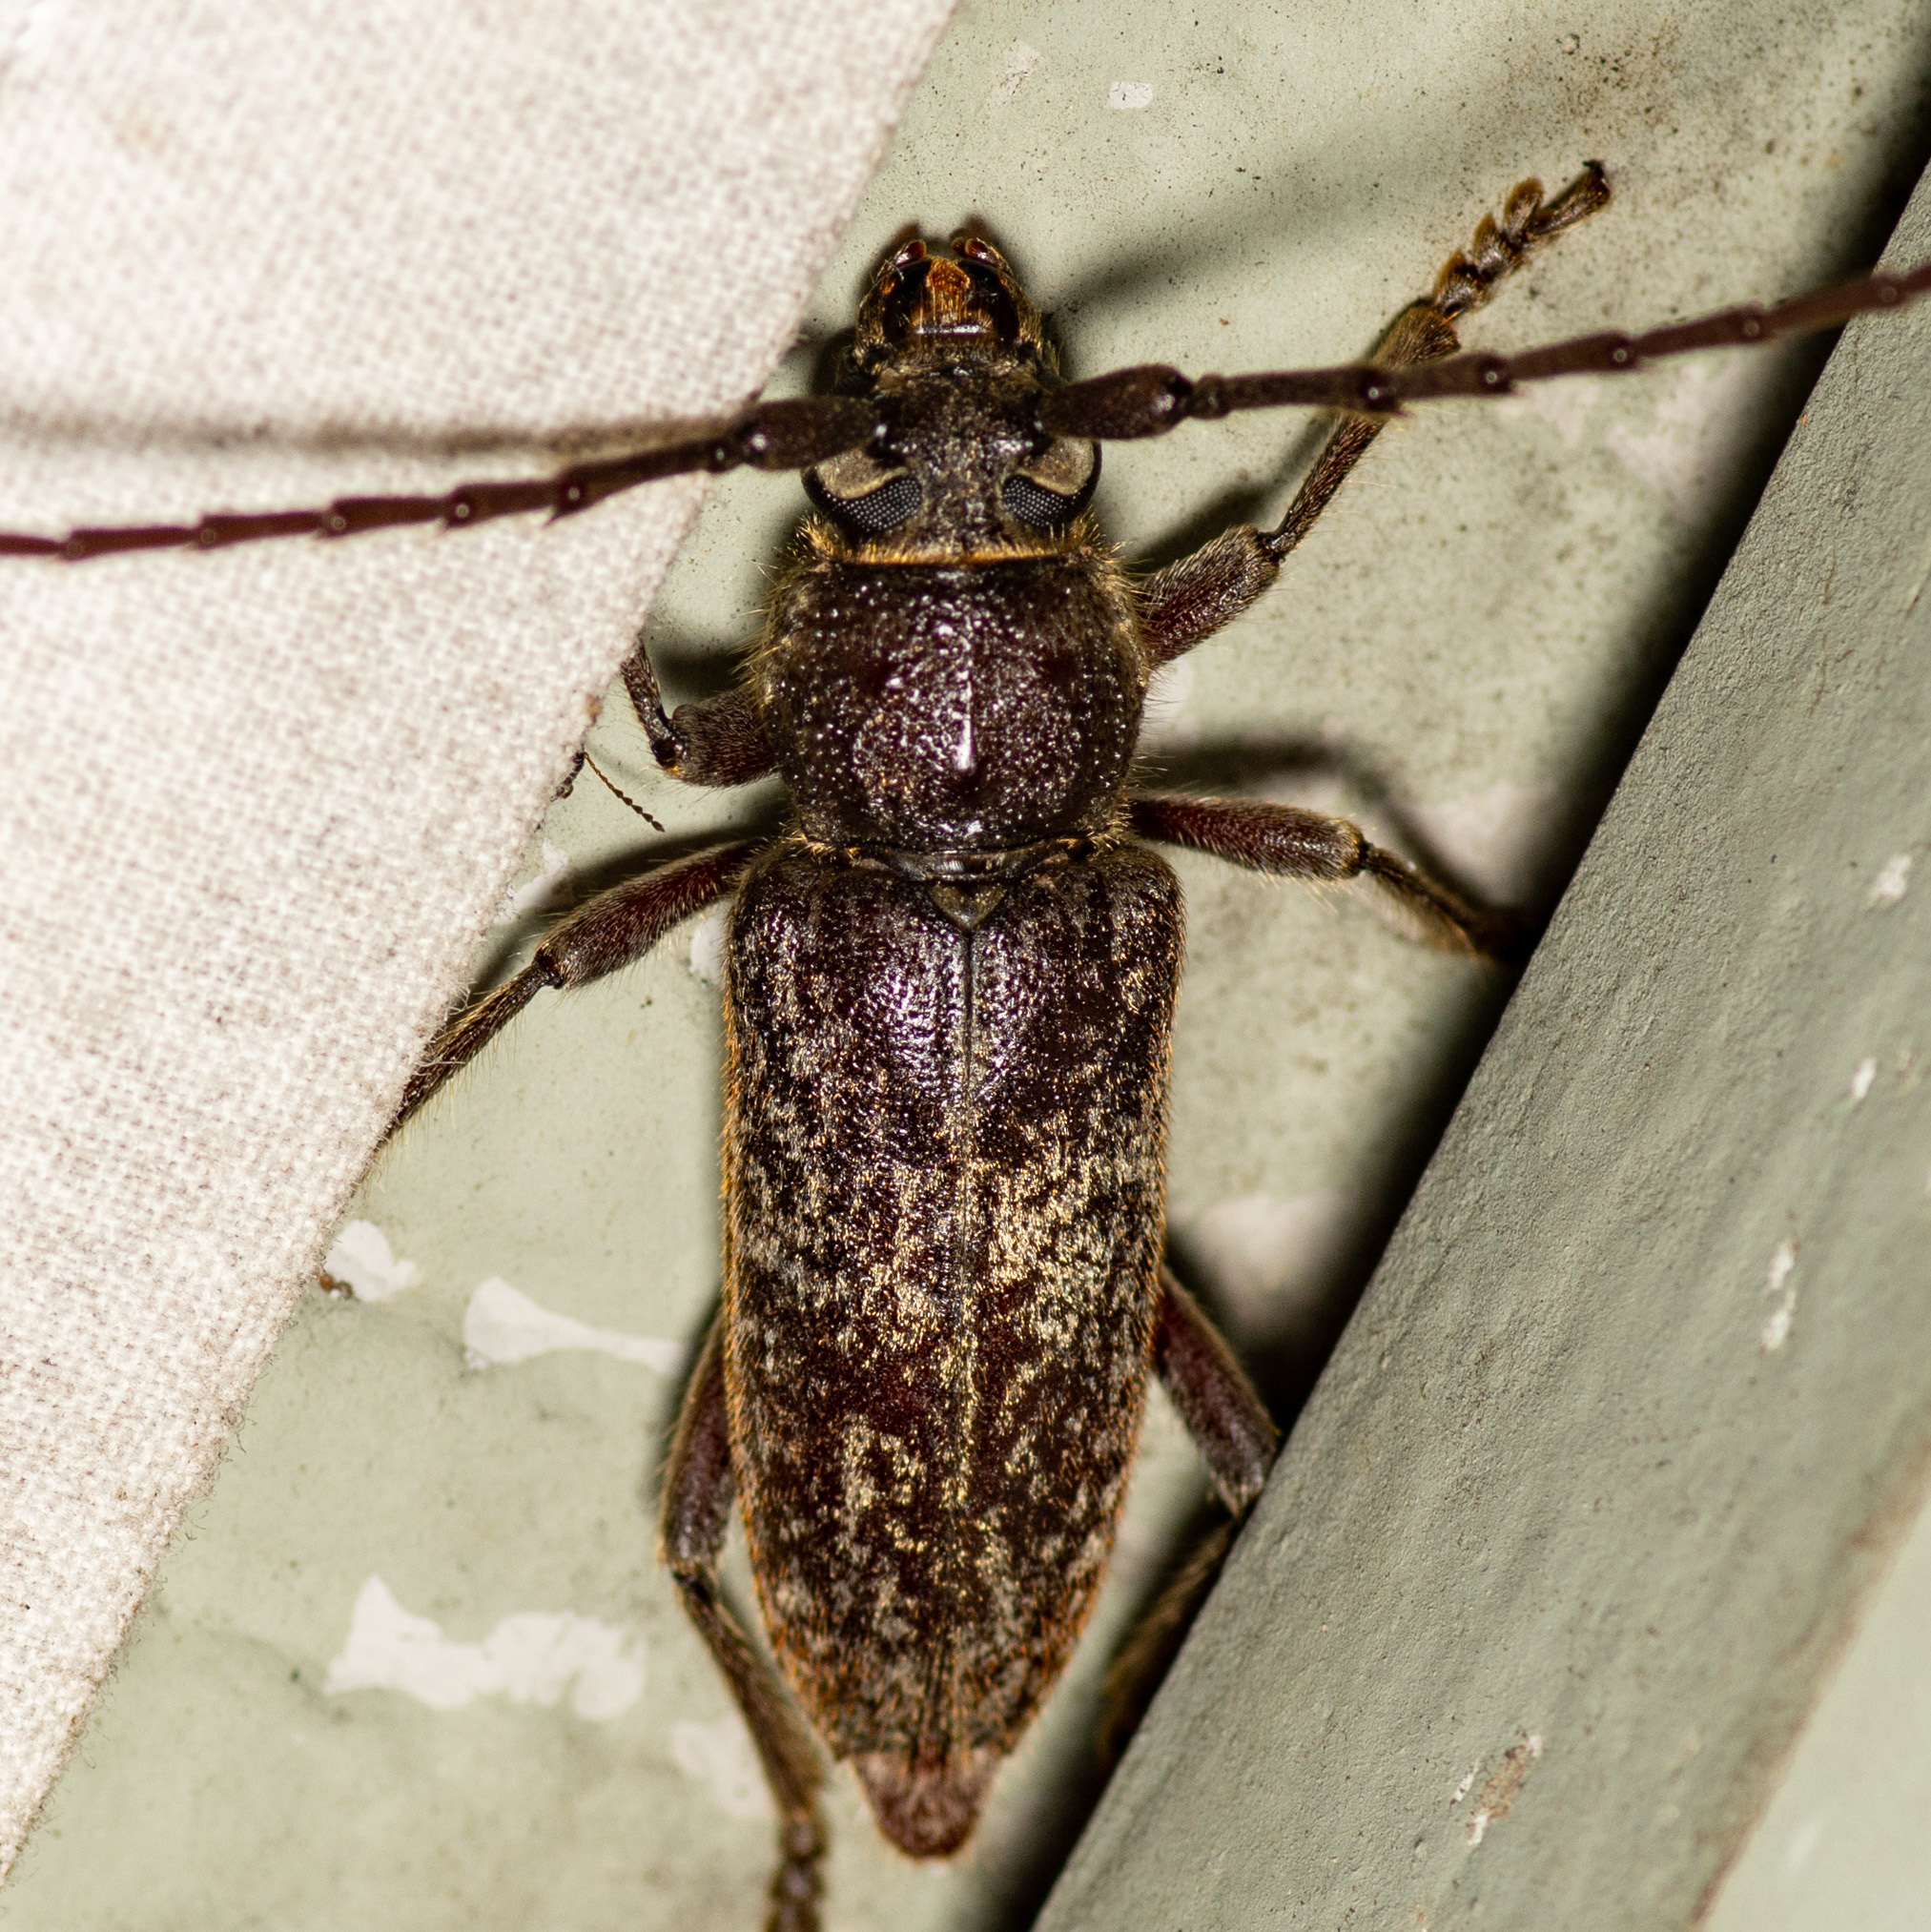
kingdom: Animalia
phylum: Arthropoda
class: Insecta
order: Coleoptera
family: Cerambycidae
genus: Enaphalodes
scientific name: Enaphalodes atomarius
